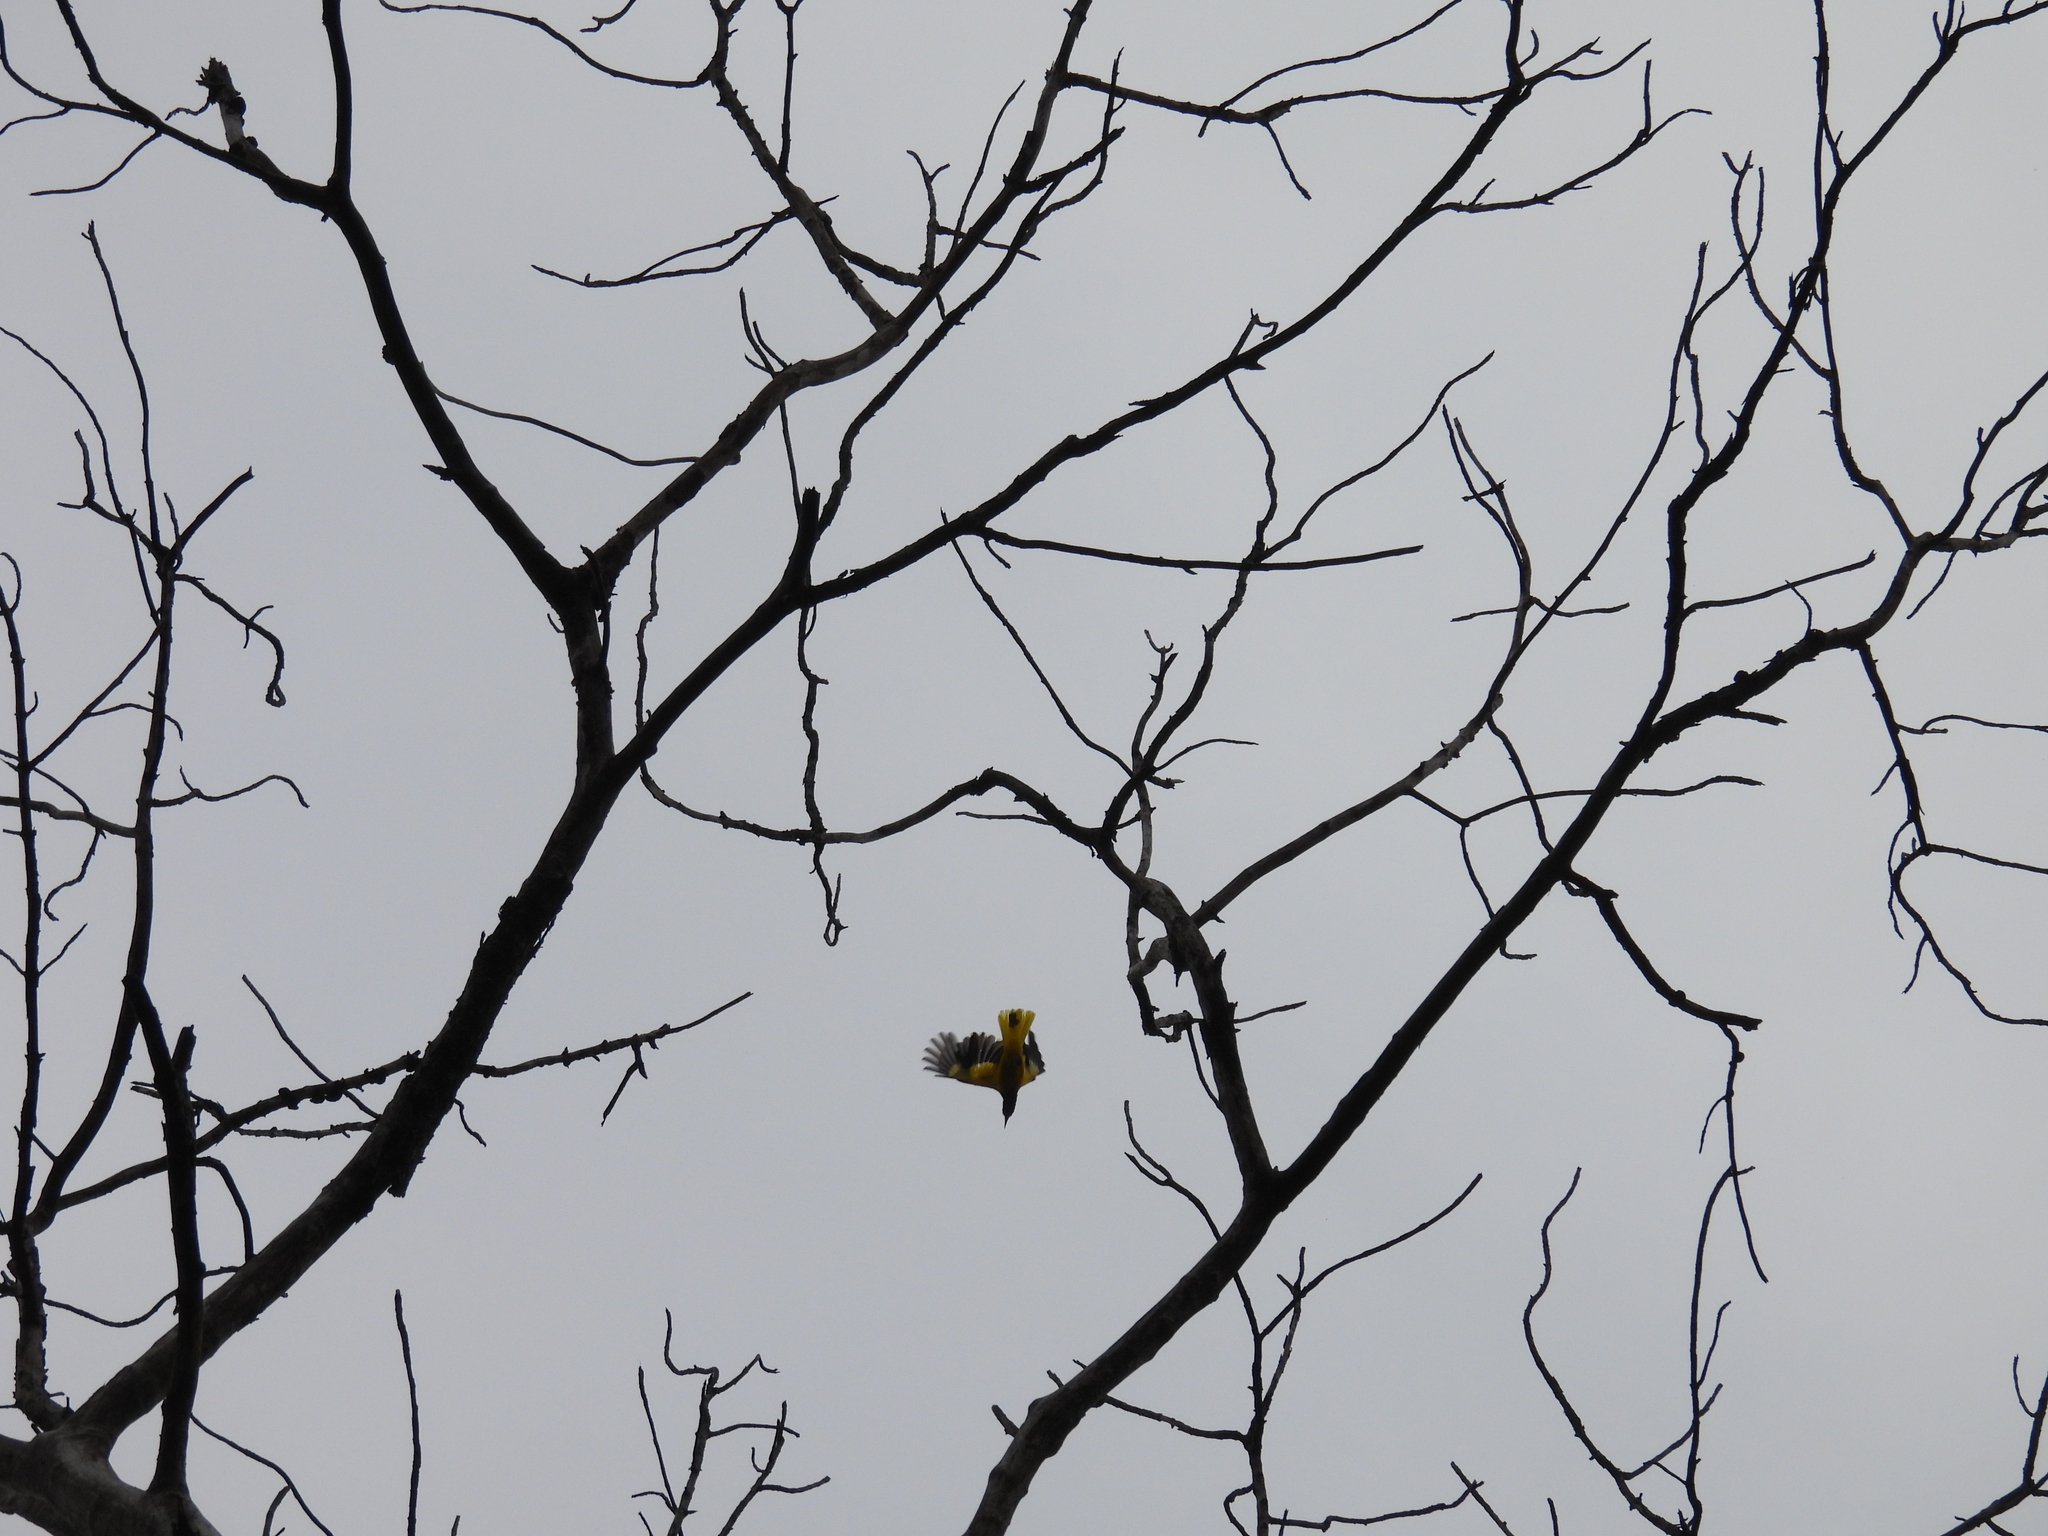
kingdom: Animalia
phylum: Chordata
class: Aves
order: Passeriformes
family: Oriolidae
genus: Oriolus
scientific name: Oriolus xanthornus
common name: Black-hooded oriole
